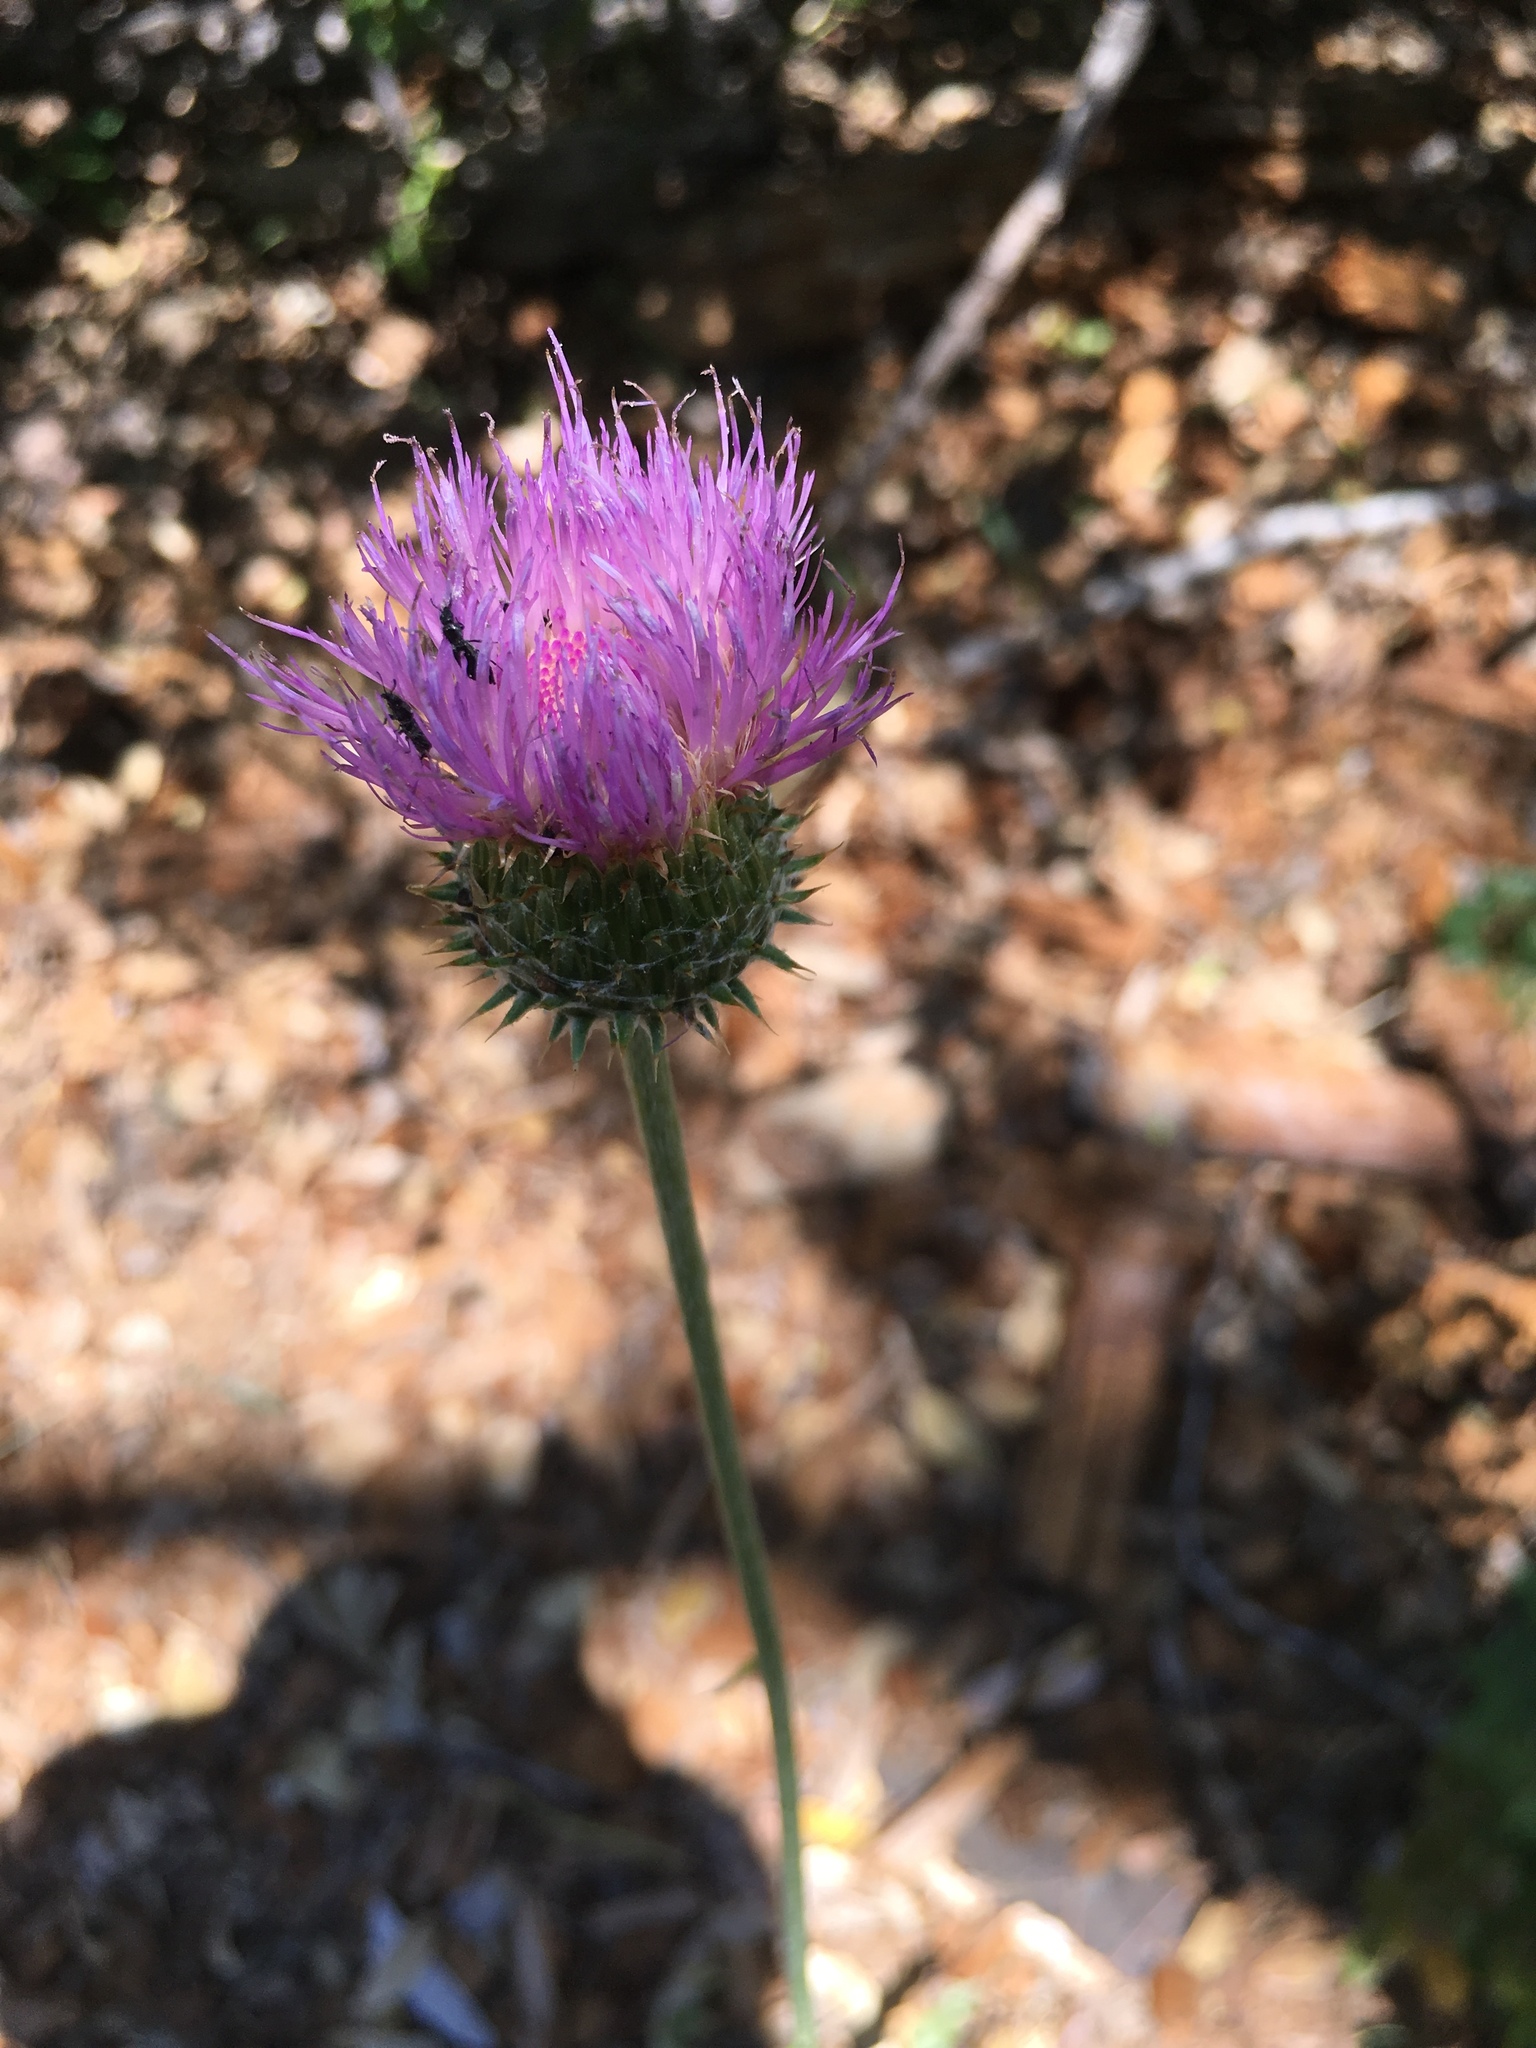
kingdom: Plantae
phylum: Tracheophyta
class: Magnoliopsida
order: Asterales
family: Asteraceae
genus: Cirsium
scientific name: Cirsium occidentale
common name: Western thistle
